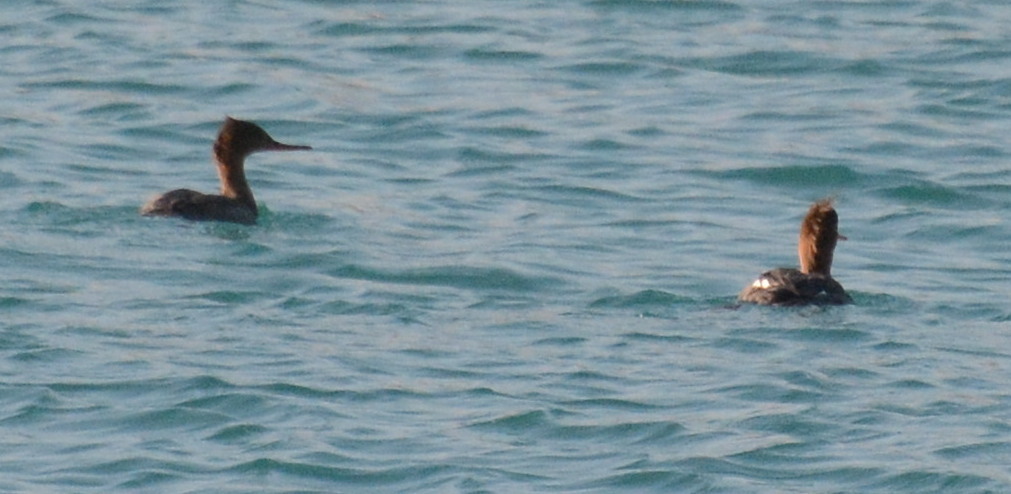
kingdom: Animalia
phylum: Chordata
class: Aves
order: Anseriformes
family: Anatidae
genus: Mergus
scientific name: Mergus serrator
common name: Red-breasted merganser
